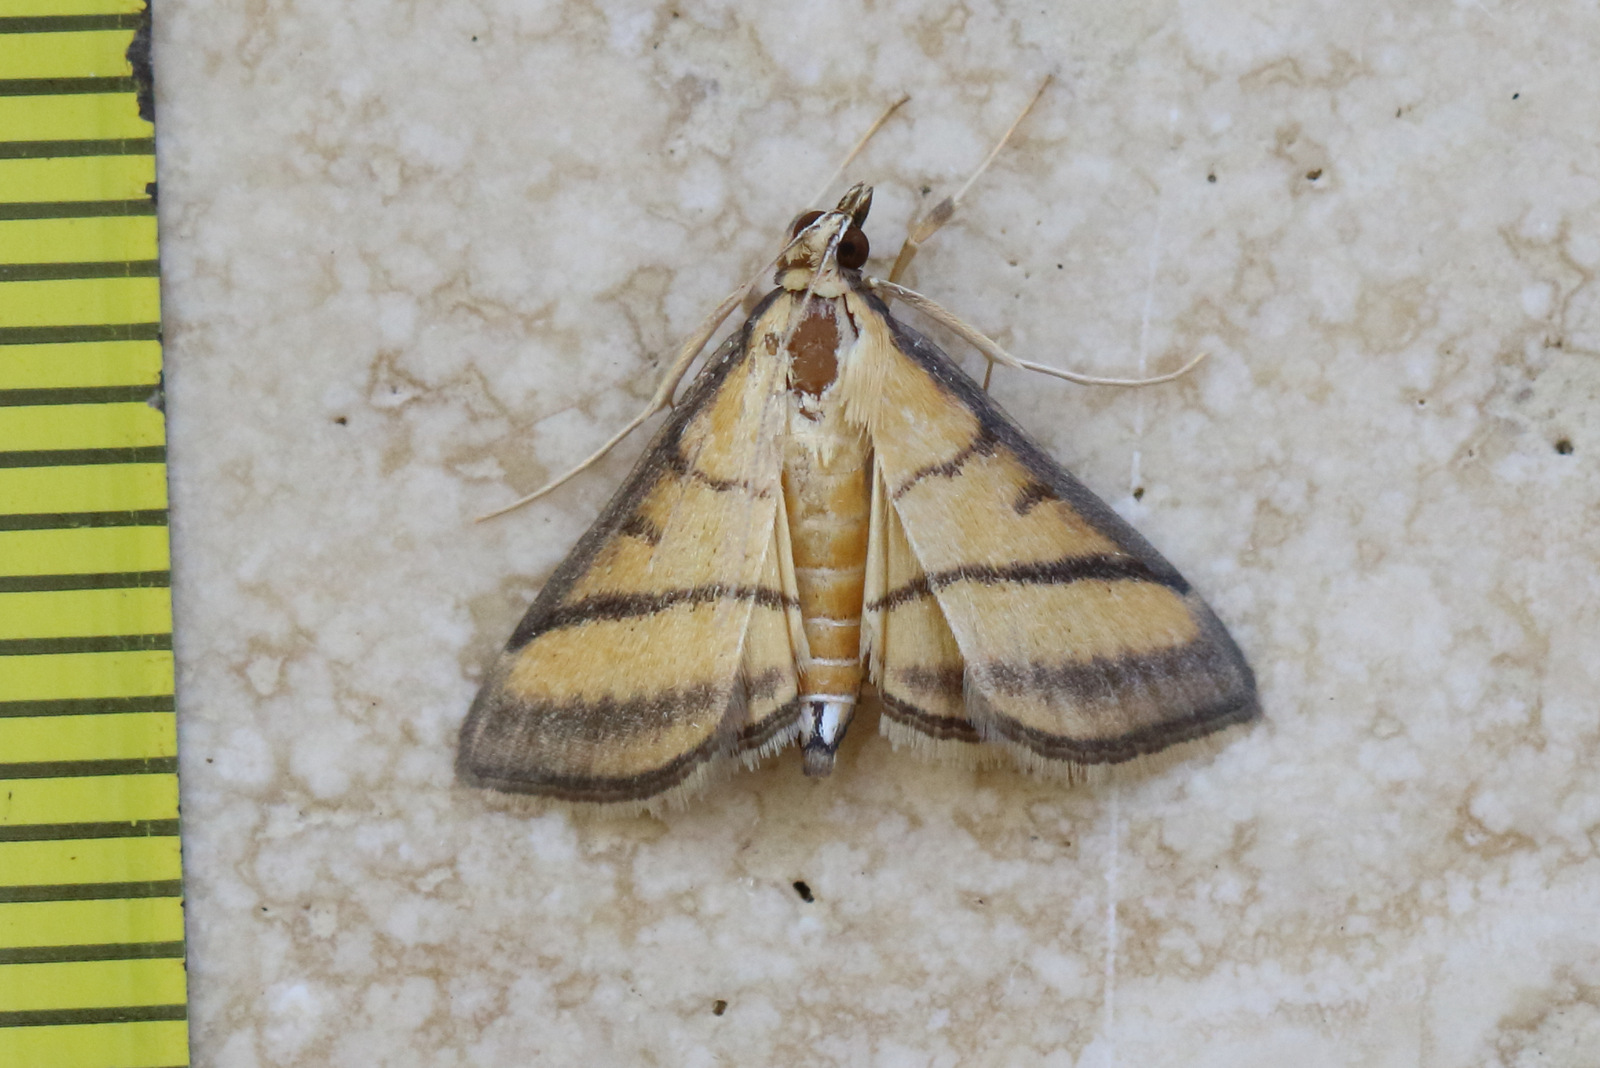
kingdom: Animalia
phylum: Arthropoda
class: Insecta
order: Lepidoptera
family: Crambidae
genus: Cnaphalocrocis
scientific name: Cnaphalocrocis medinalis
